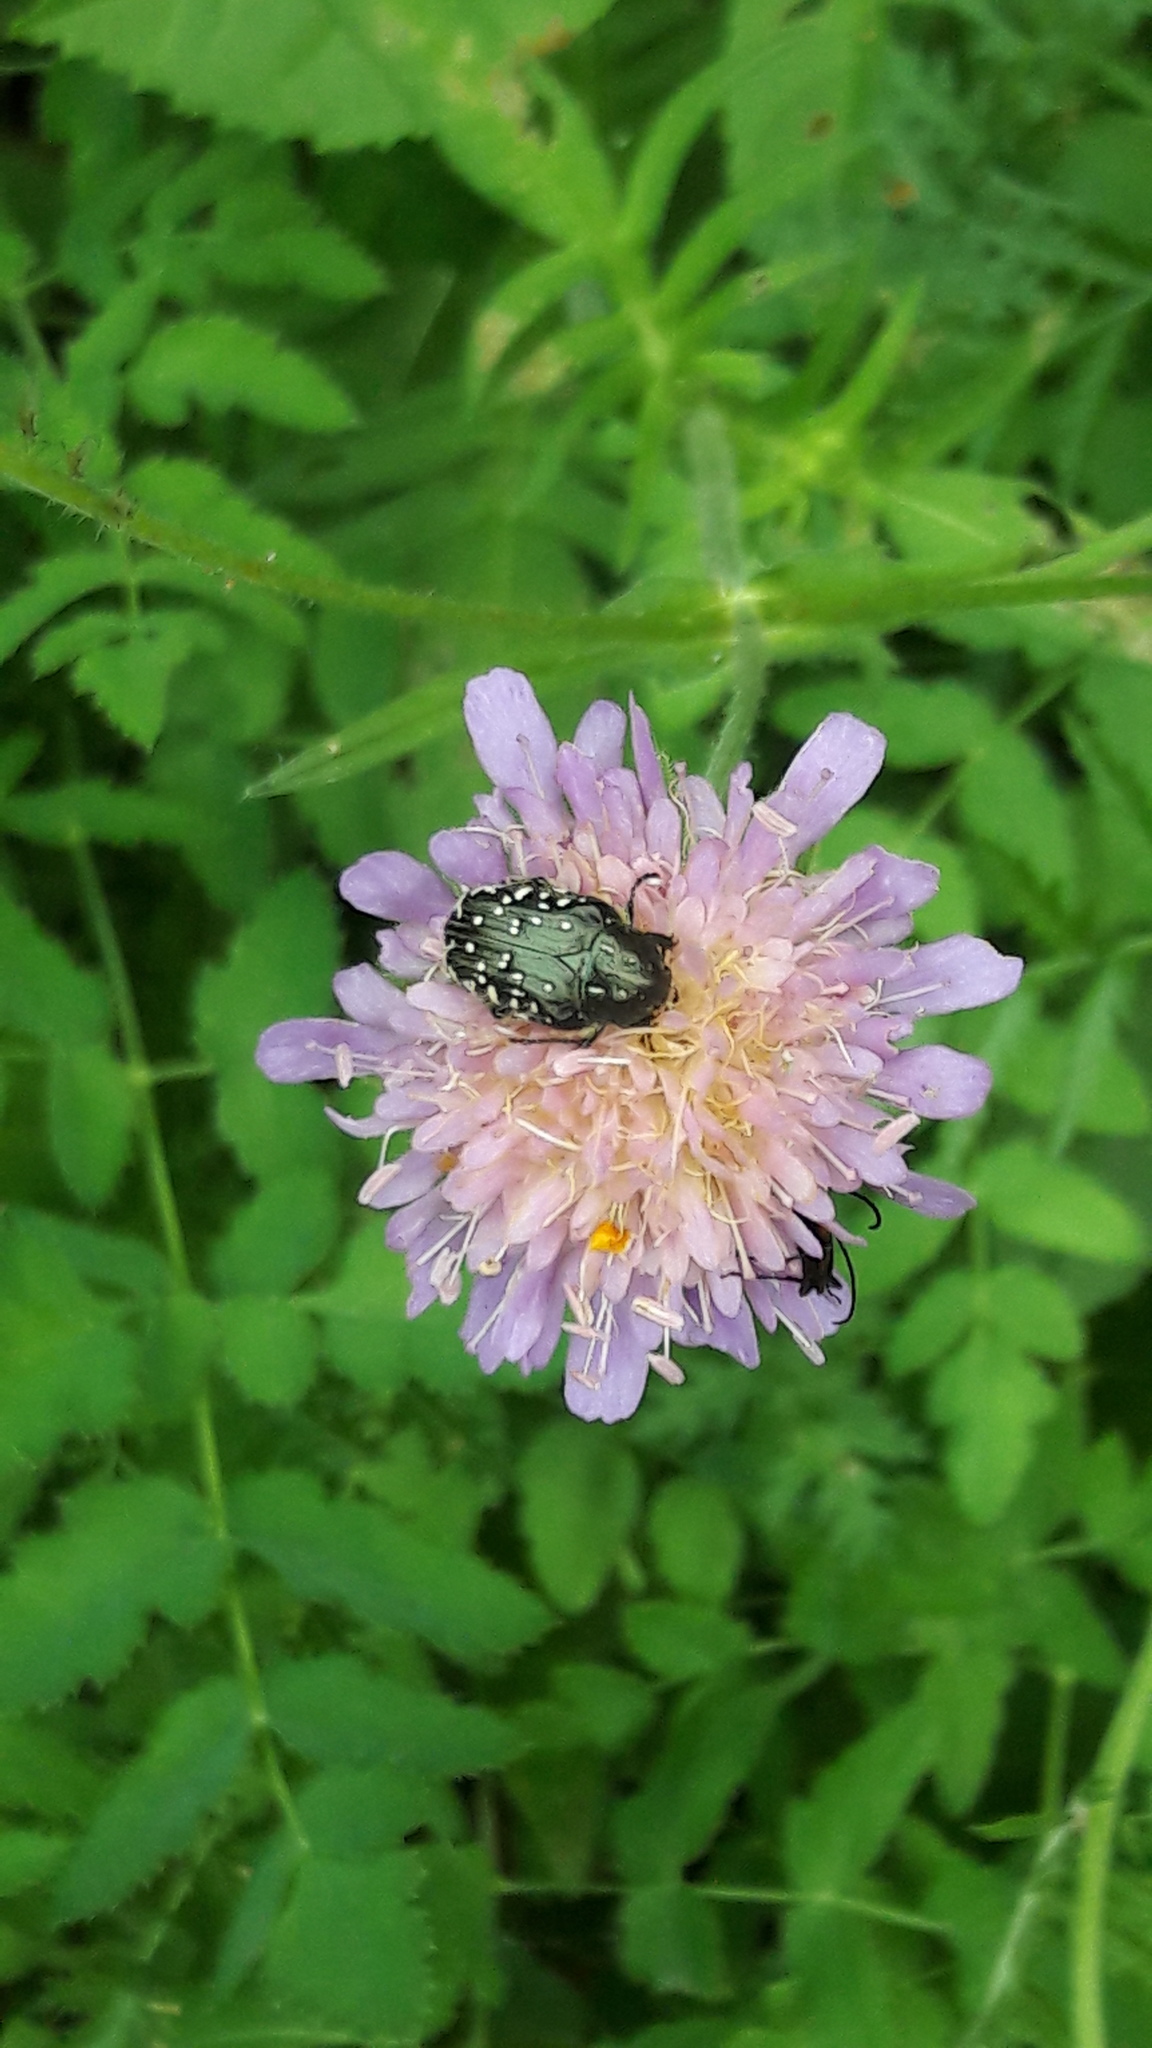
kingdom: Animalia
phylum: Arthropoda
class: Insecta
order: Coleoptera
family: Scarabaeidae
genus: Oxythyrea
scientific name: Oxythyrea funesta
